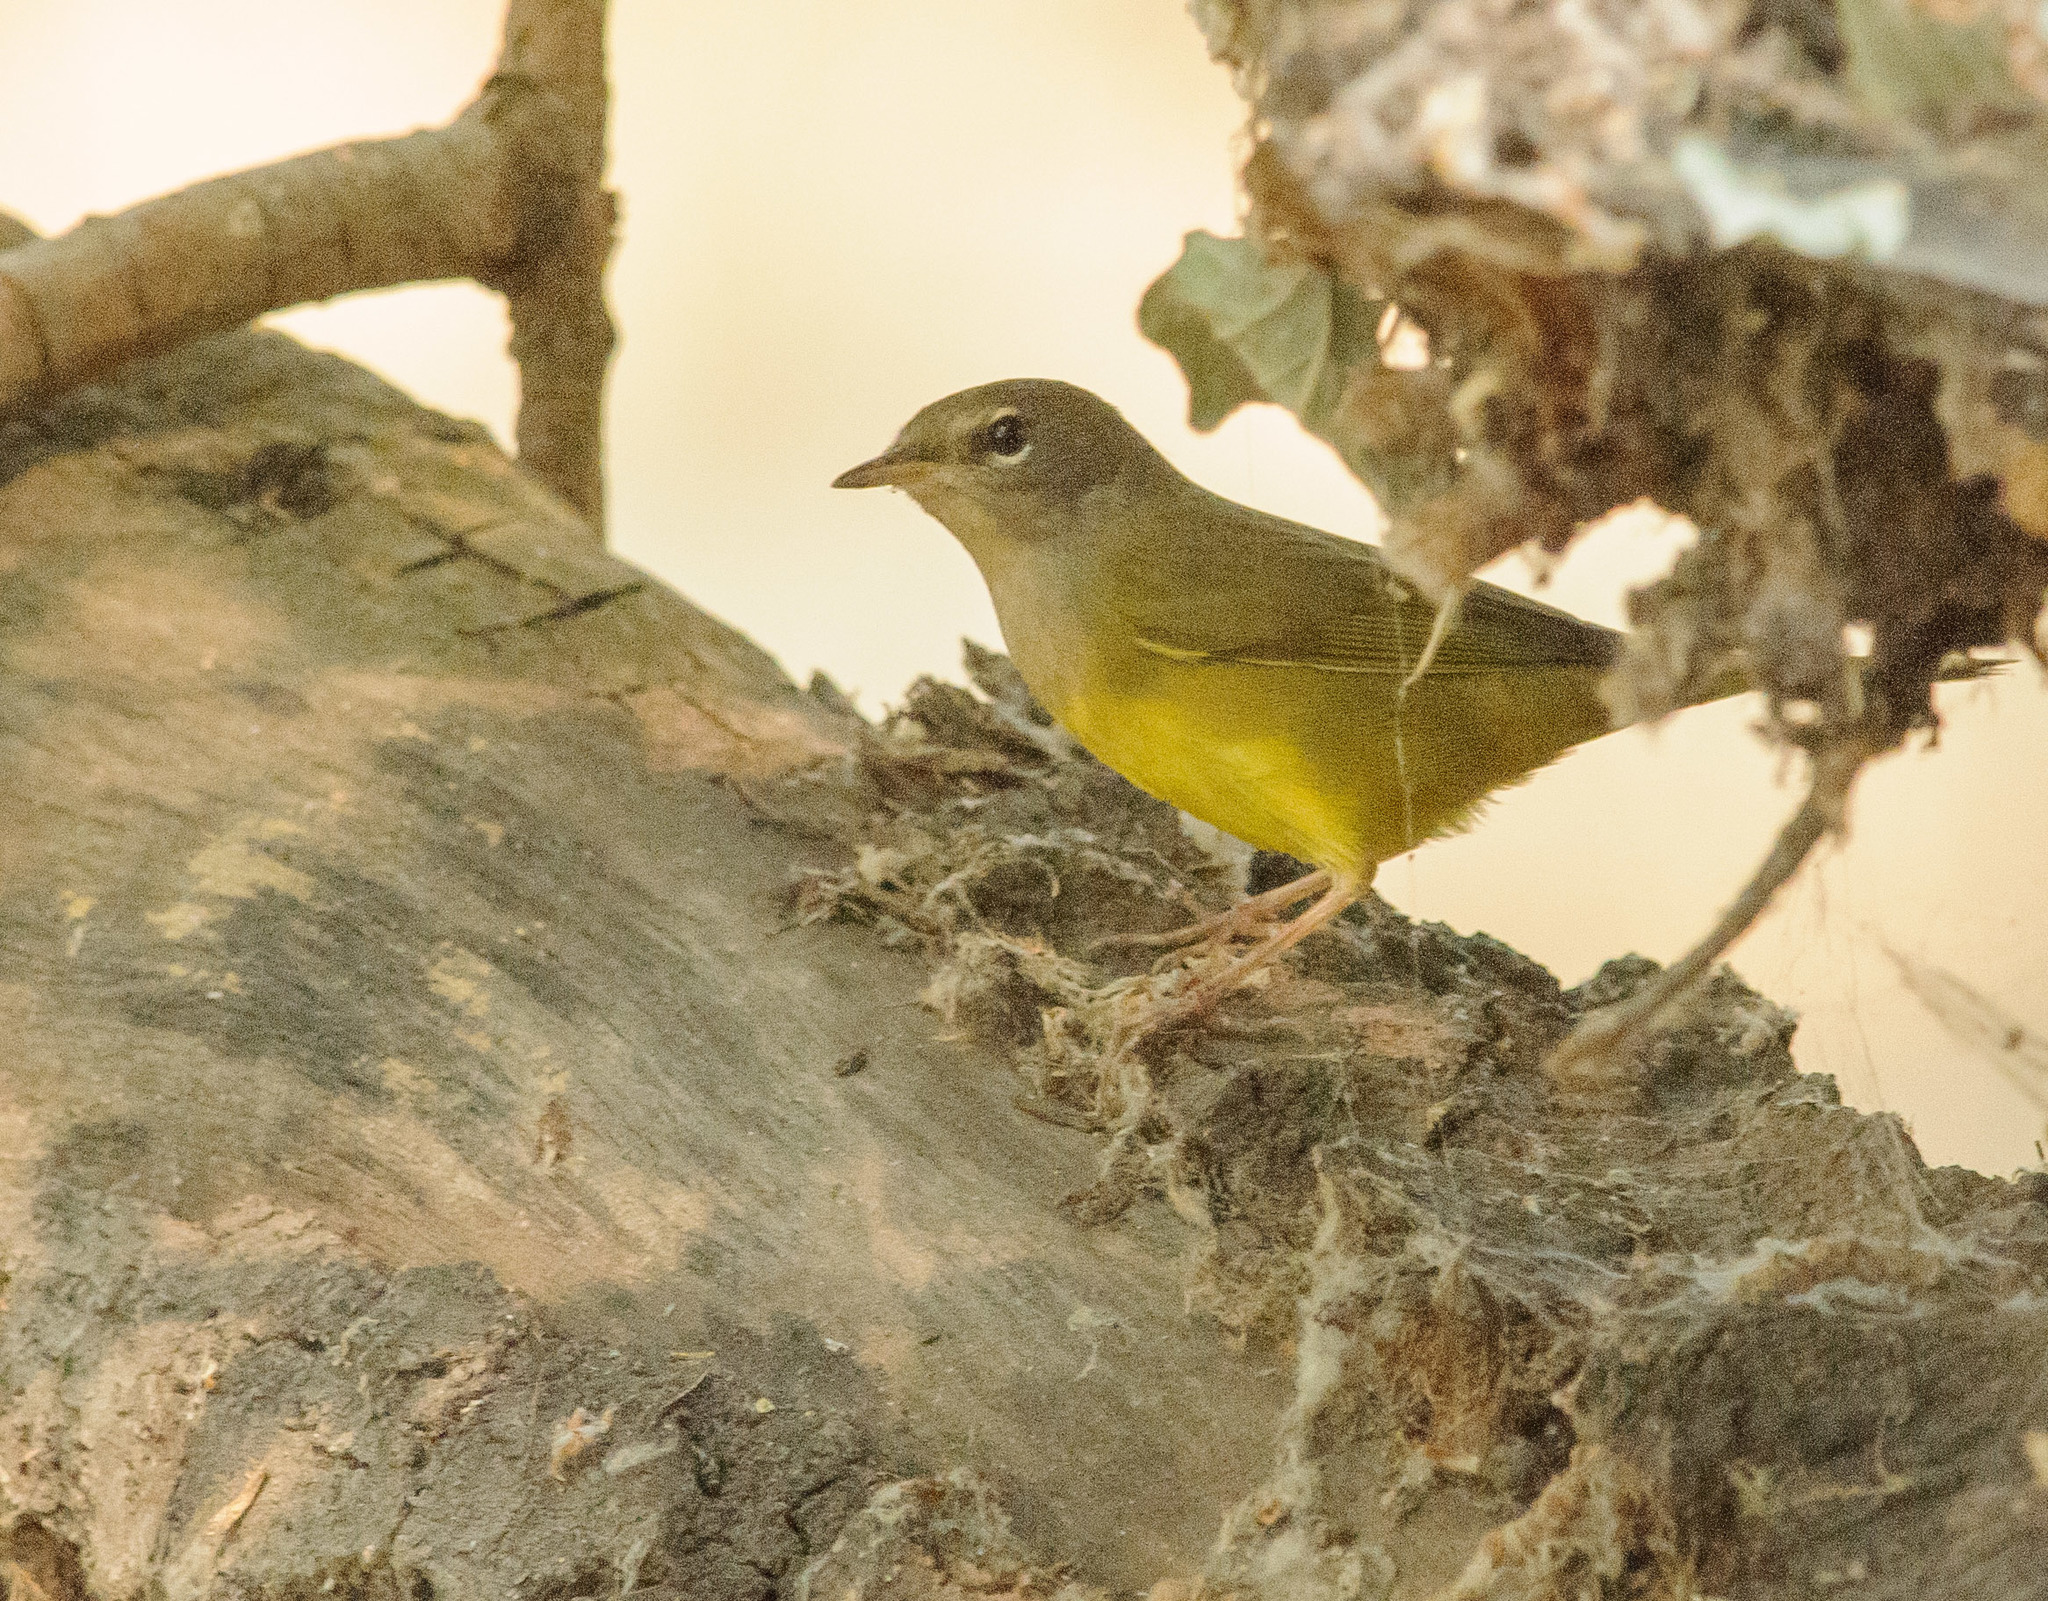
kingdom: Animalia
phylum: Chordata
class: Aves
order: Passeriformes
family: Parulidae
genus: Geothlypis
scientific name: Geothlypis tolmiei
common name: Macgillivray's warbler
